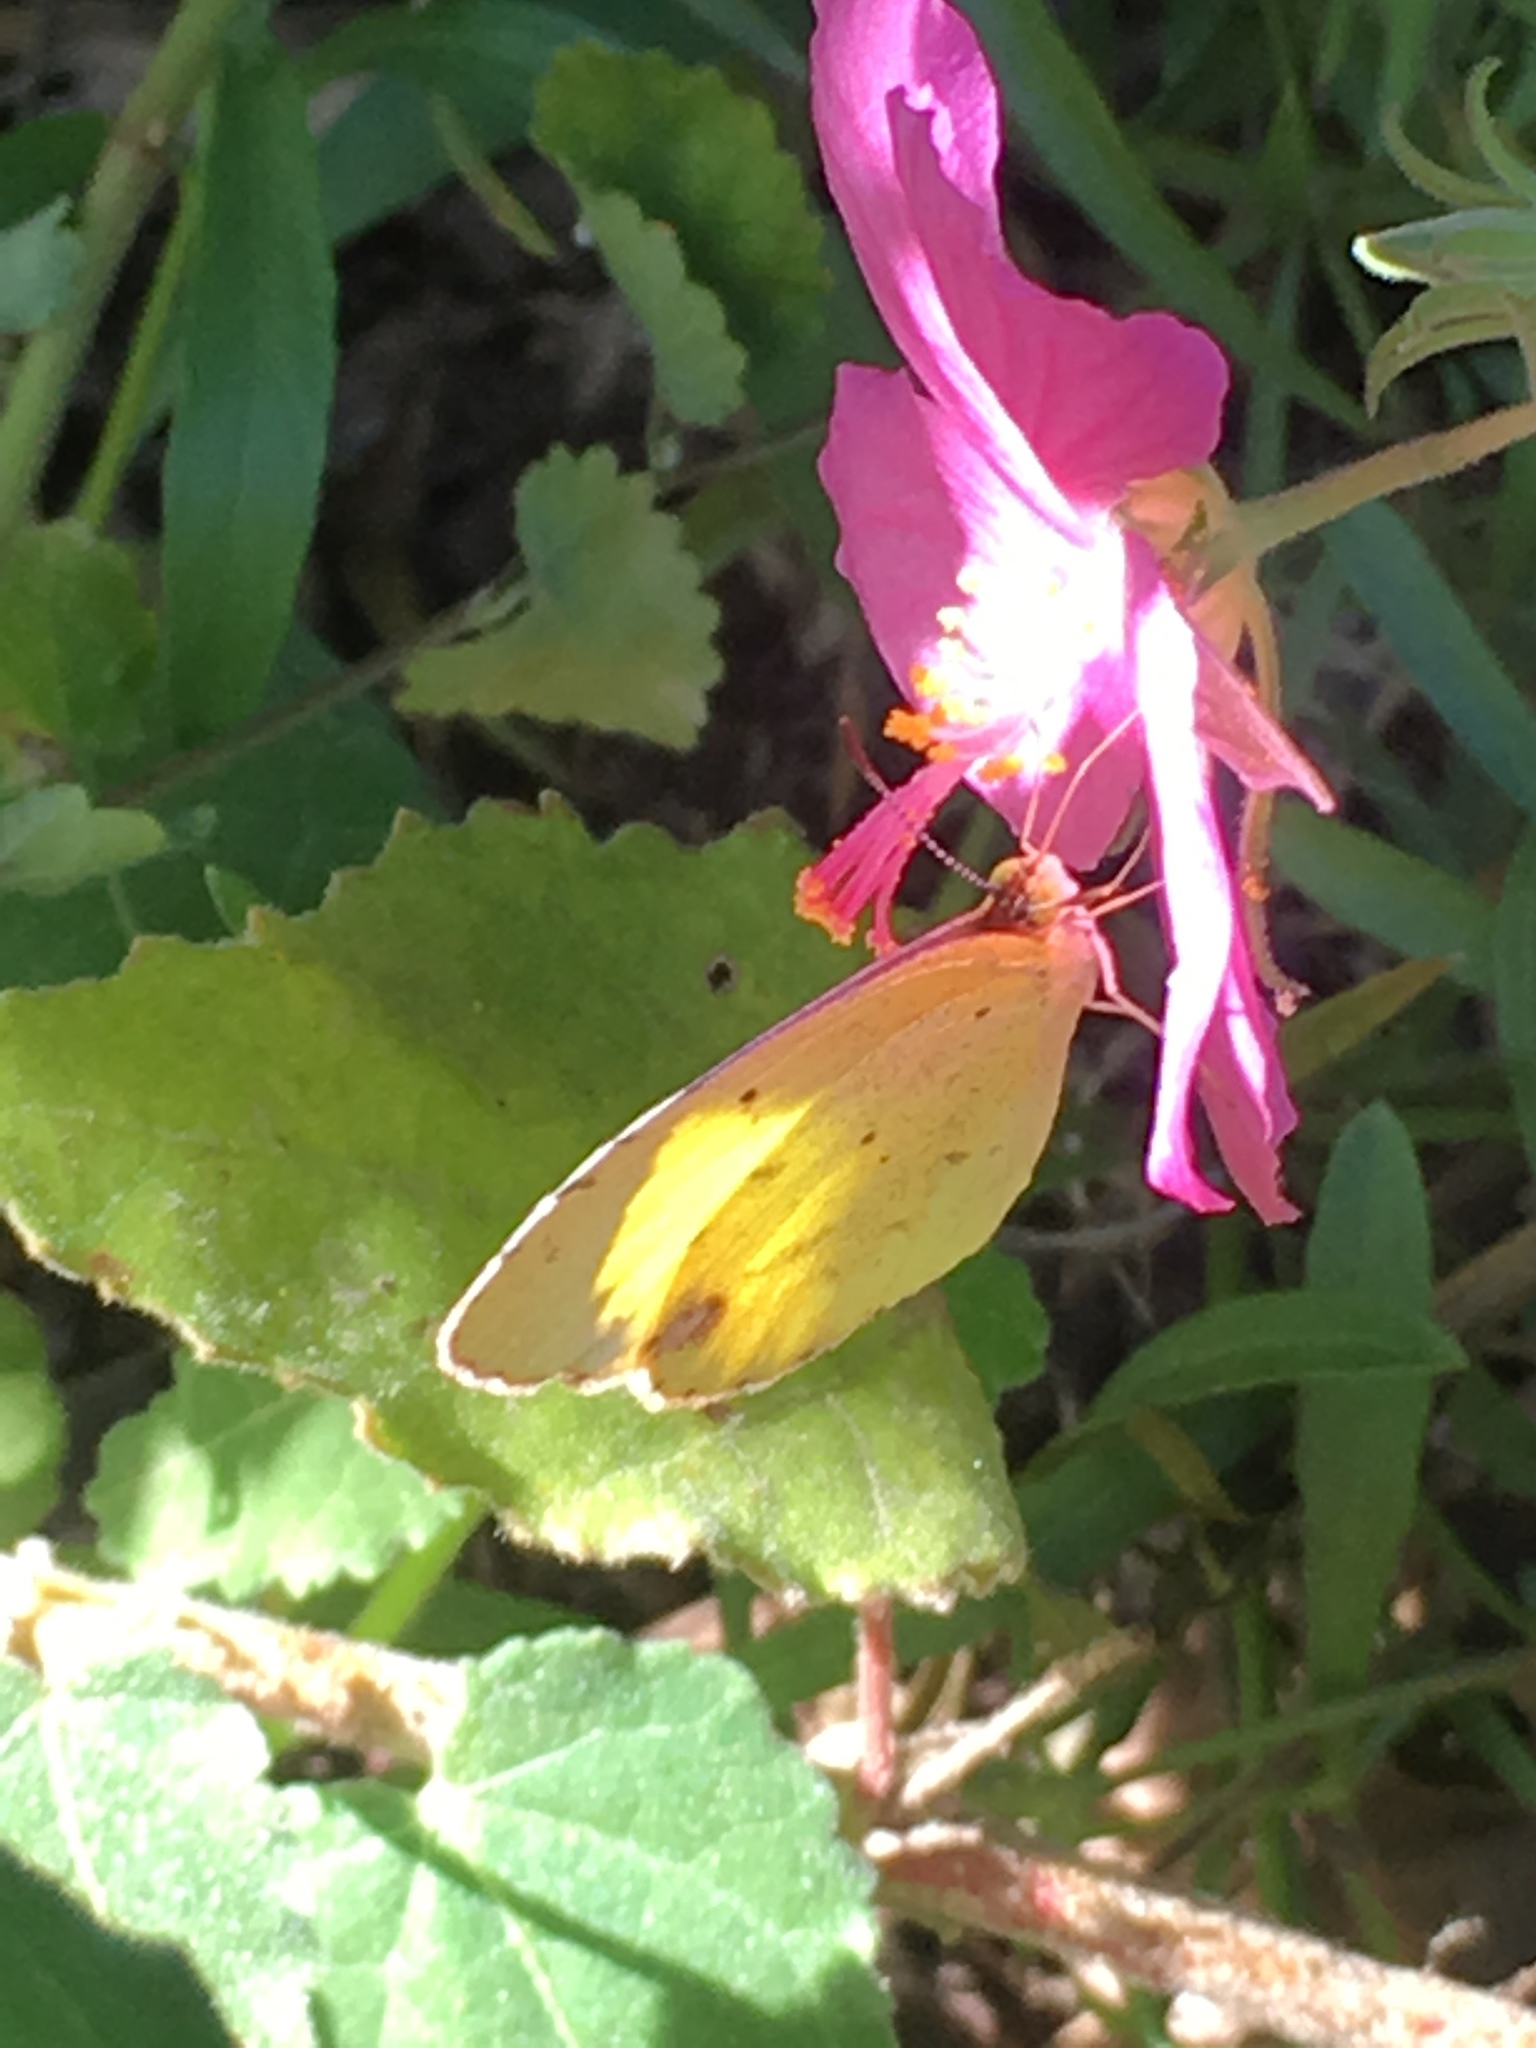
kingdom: Animalia
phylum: Arthropoda
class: Insecta
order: Lepidoptera
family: Pieridae
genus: Pyrisitia
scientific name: Pyrisitia lisa
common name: Little yellow
